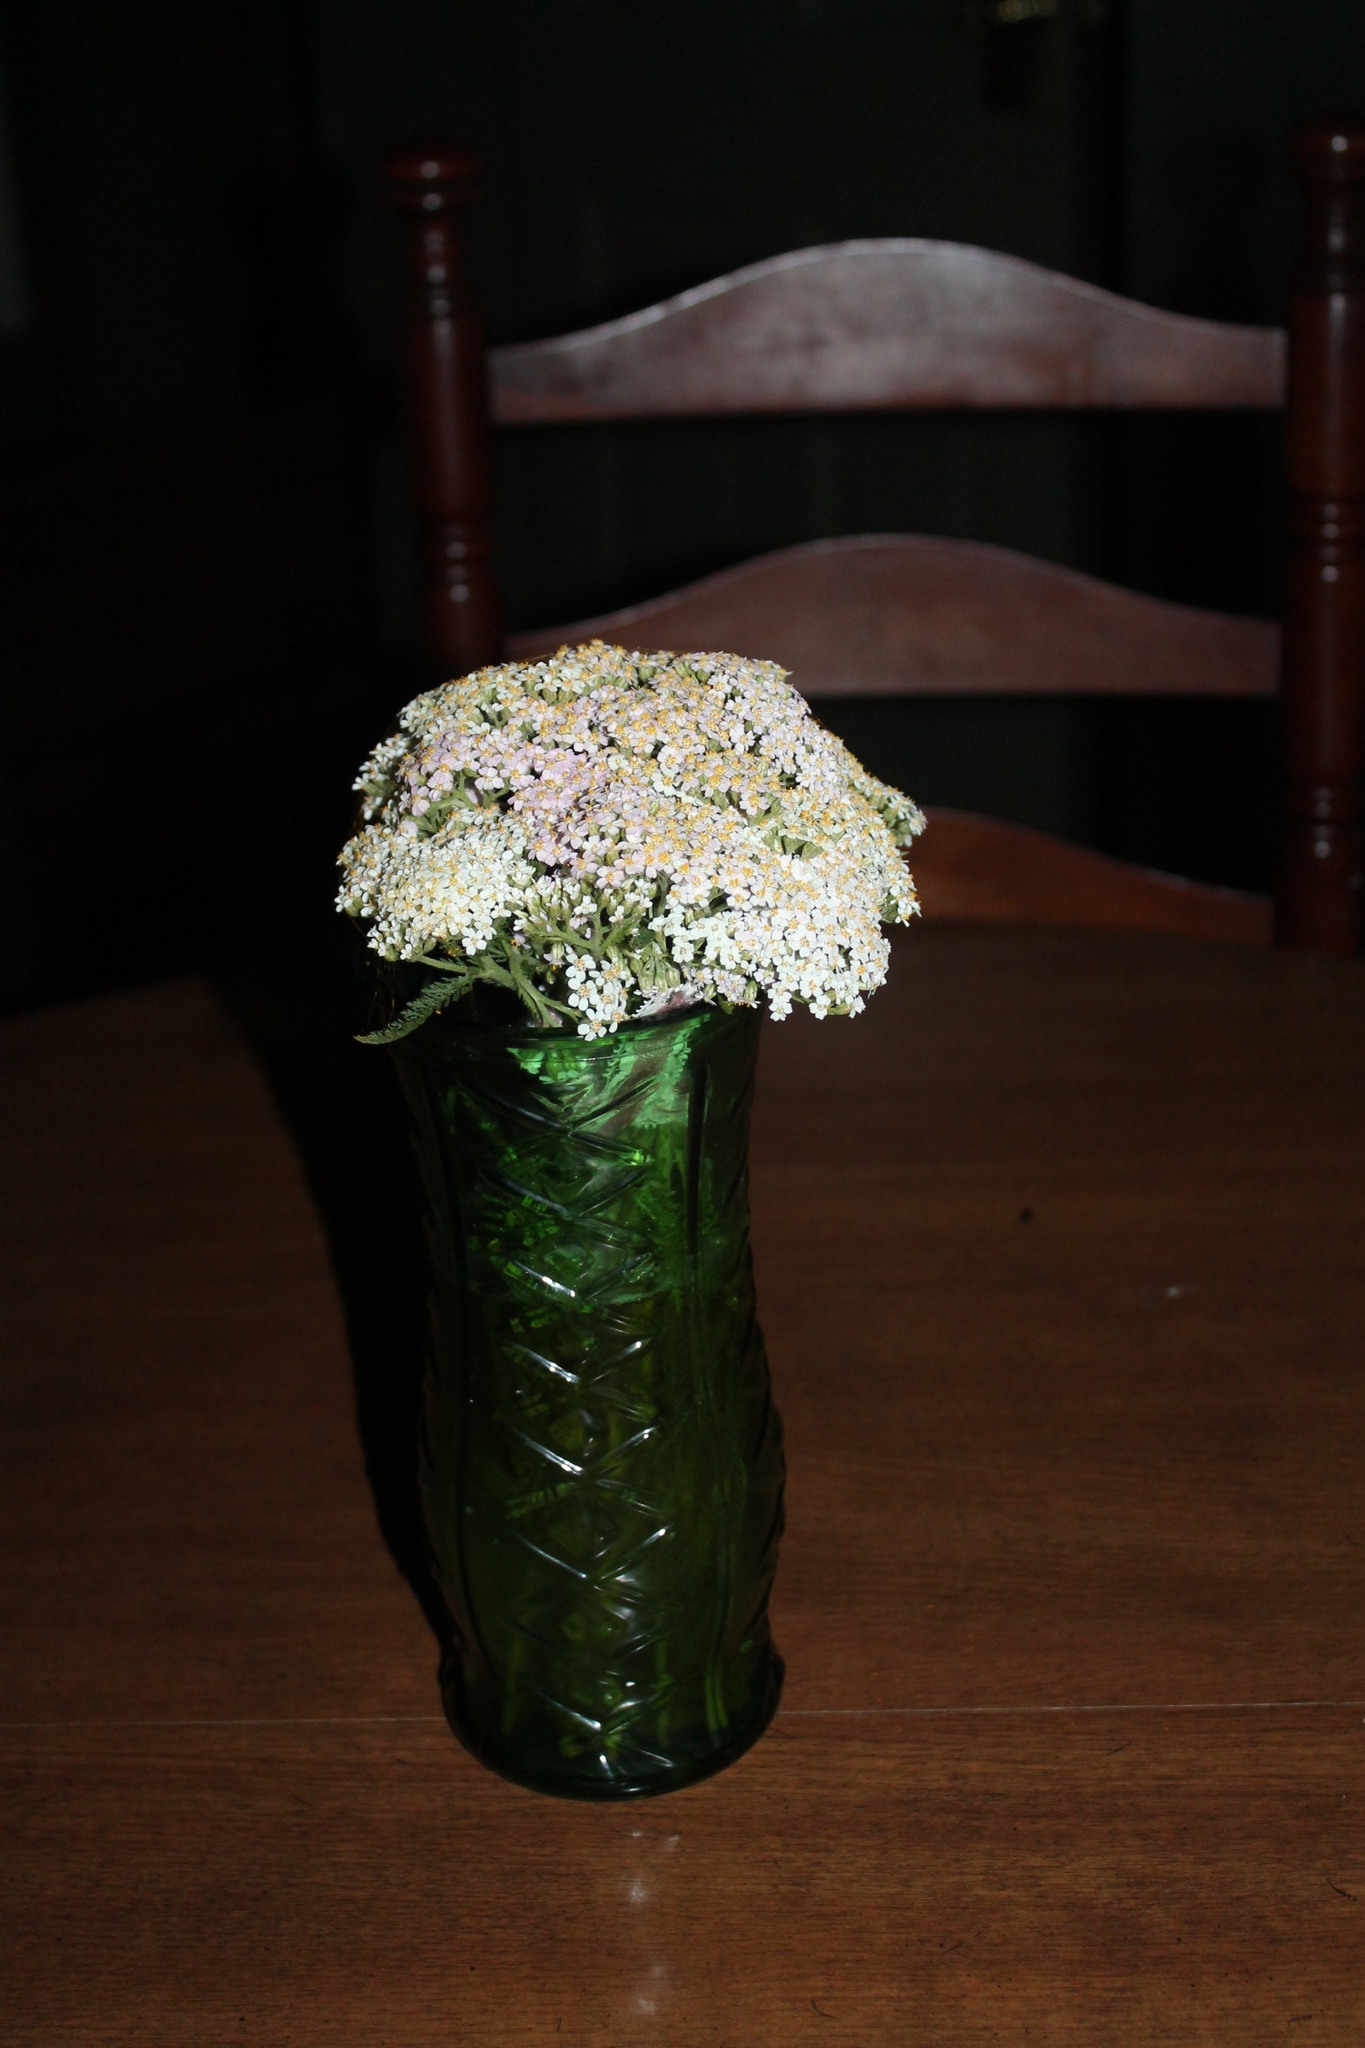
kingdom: Plantae
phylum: Tracheophyta
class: Magnoliopsida
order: Asterales
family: Asteraceae
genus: Achillea
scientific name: Achillea millefolium
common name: Yarrow
